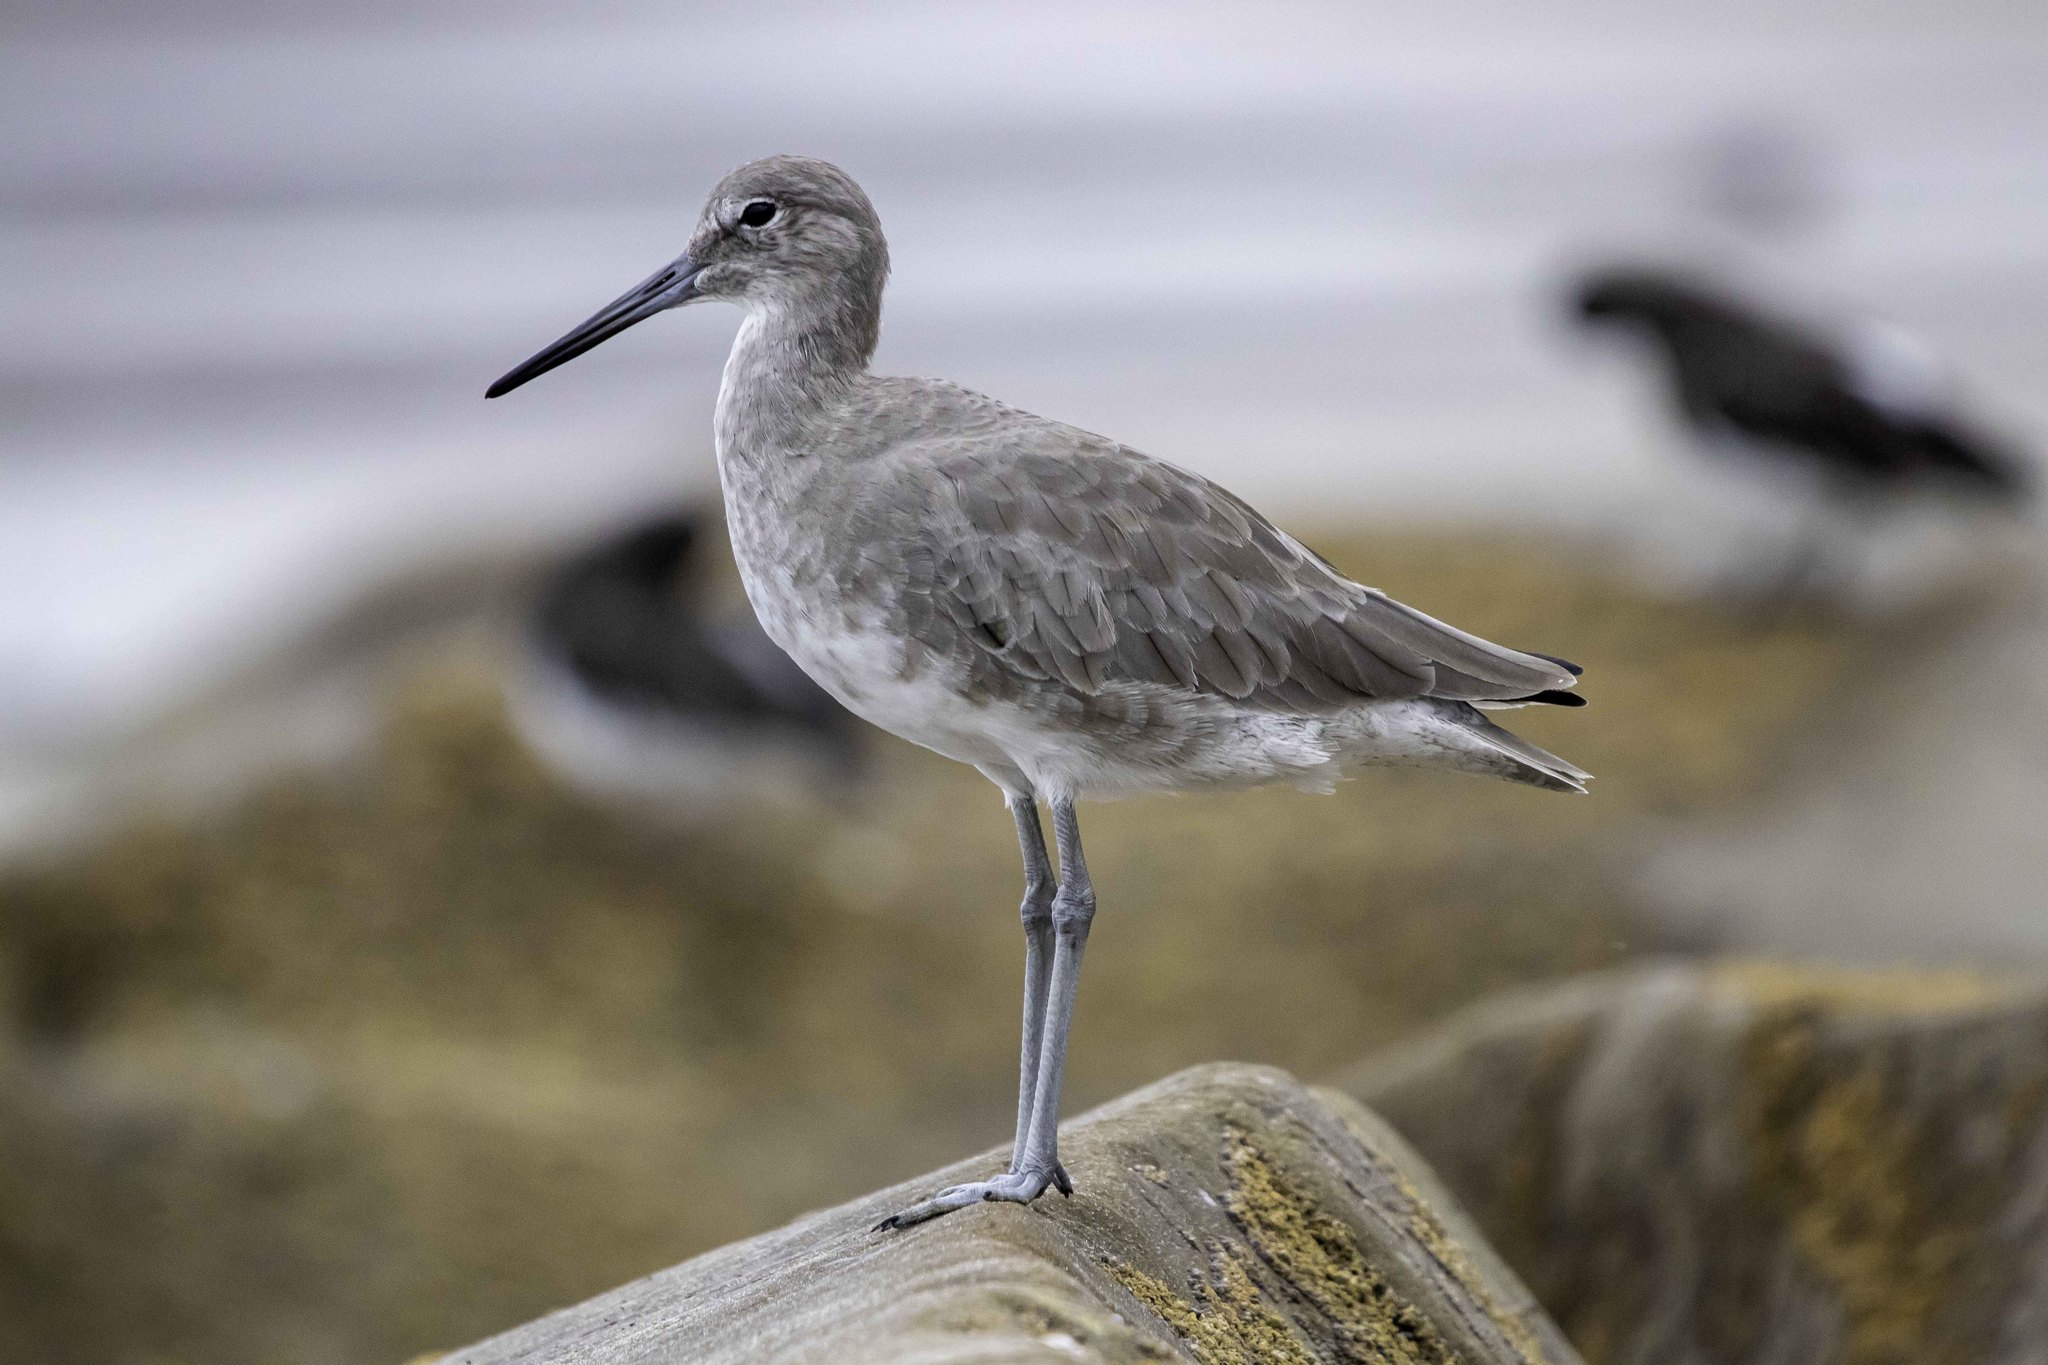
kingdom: Animalia
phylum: Chordata
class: Aves
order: Charadriiformes
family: Scolopacidae
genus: Tringa
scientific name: Tringa semipalmata
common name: Willet
